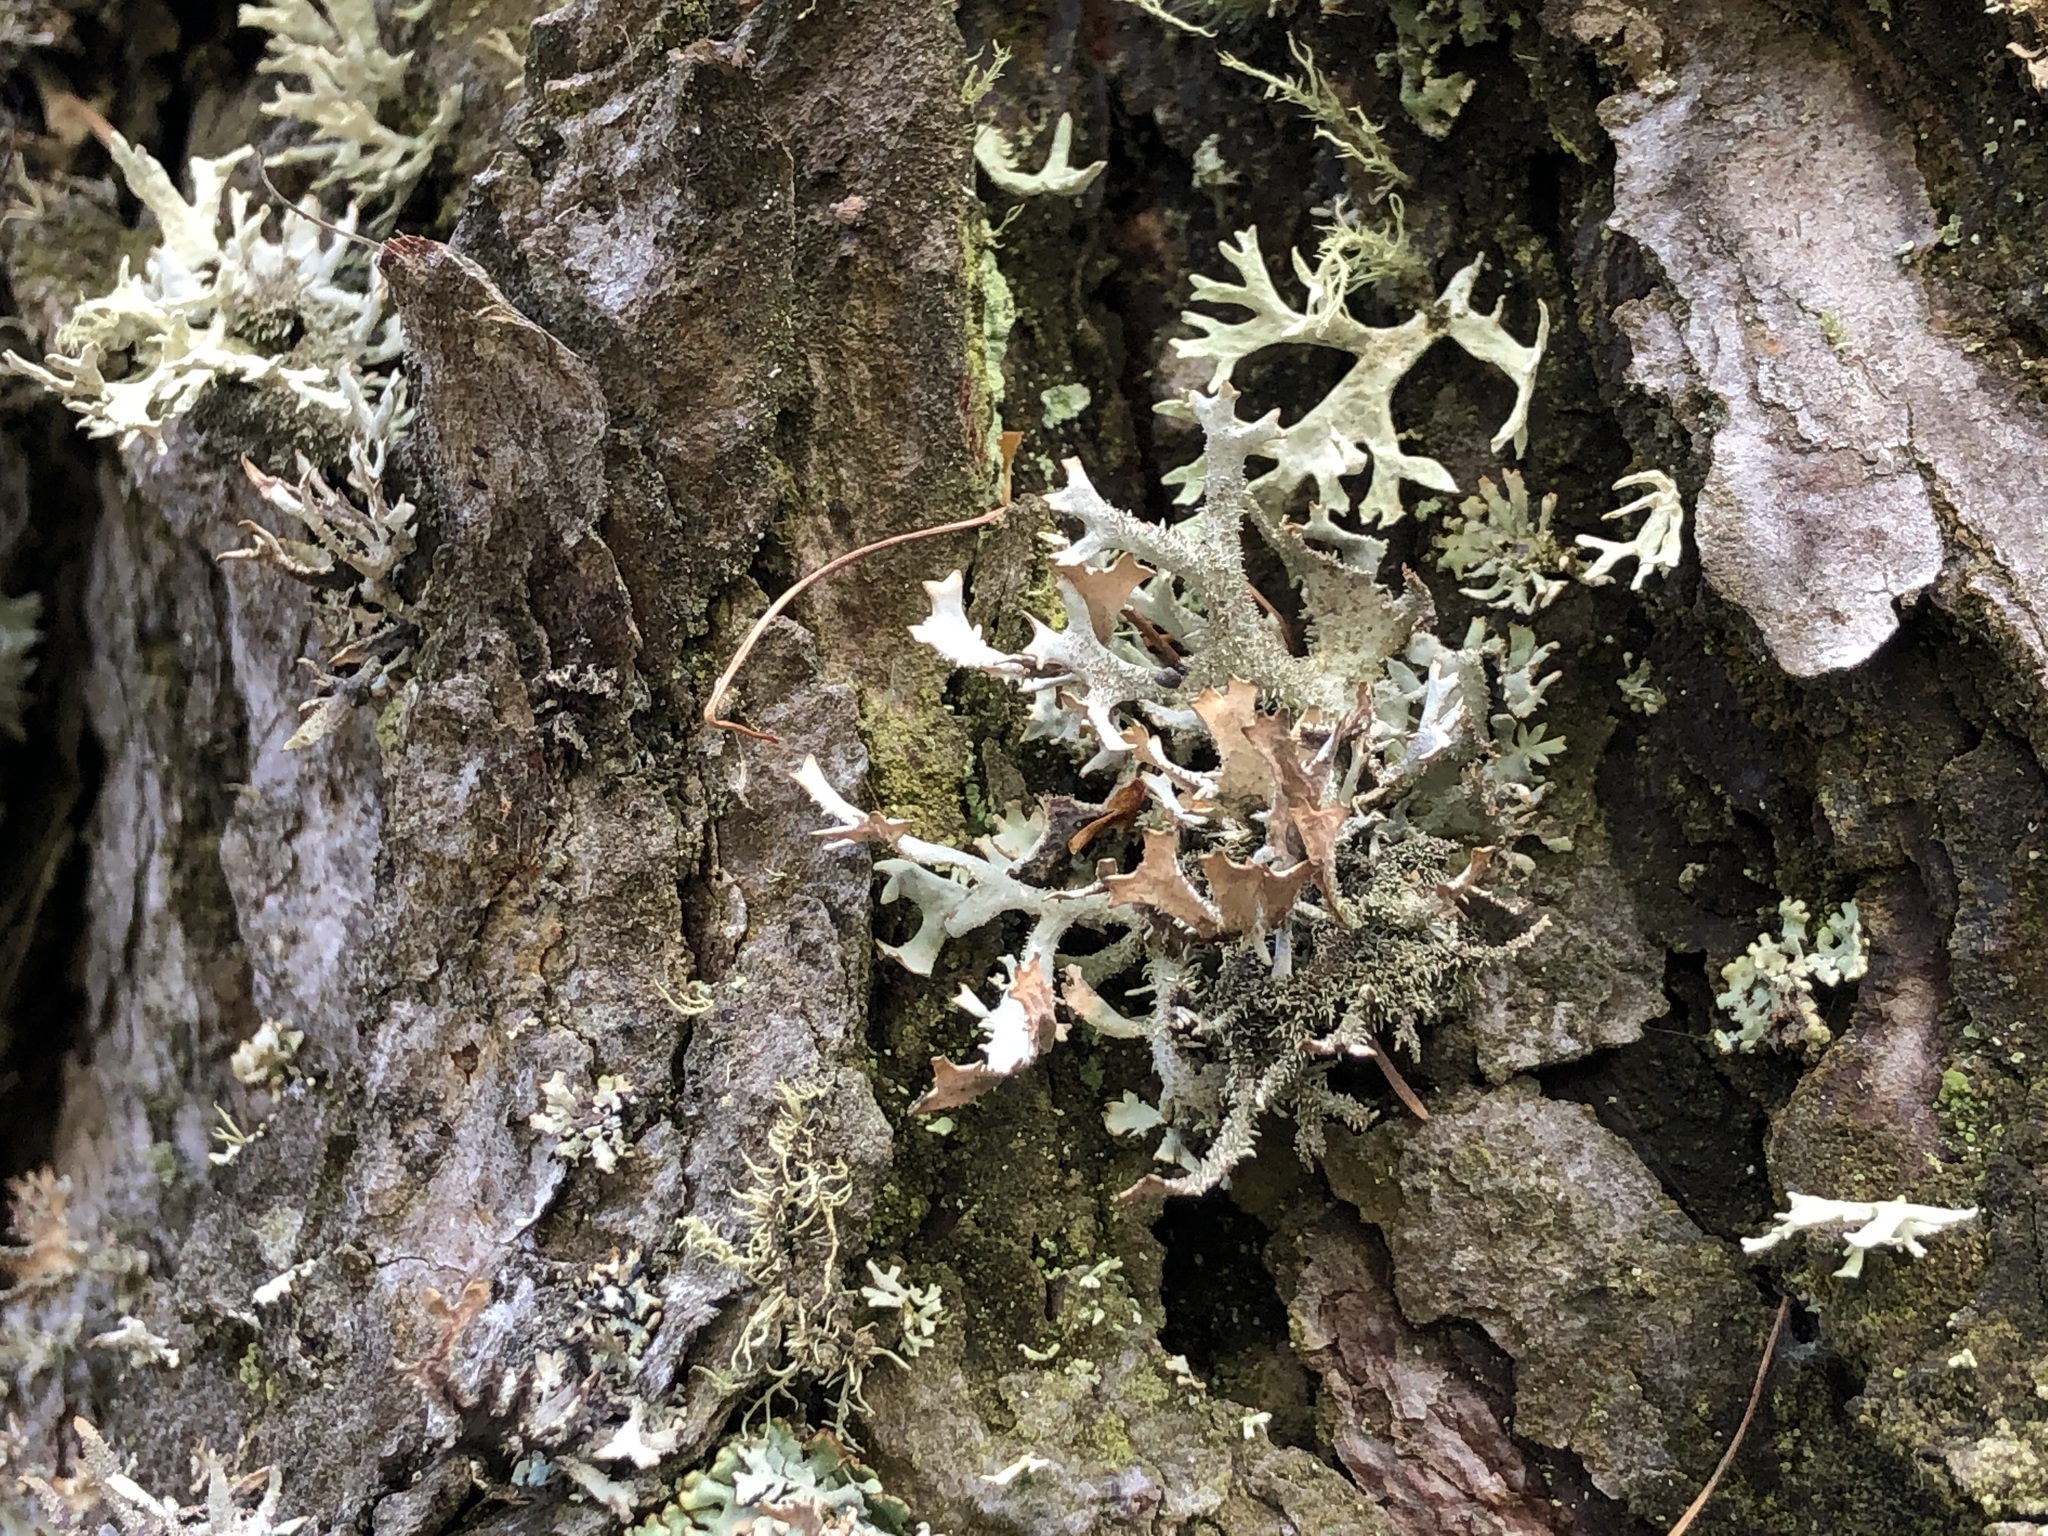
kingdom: Fungi
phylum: Ascomycota
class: Lecanoromycetes
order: Lecanorales
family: Parmeliaceae
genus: Pseudevernia
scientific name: Pseudevernia furfuracea
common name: Tree moss
